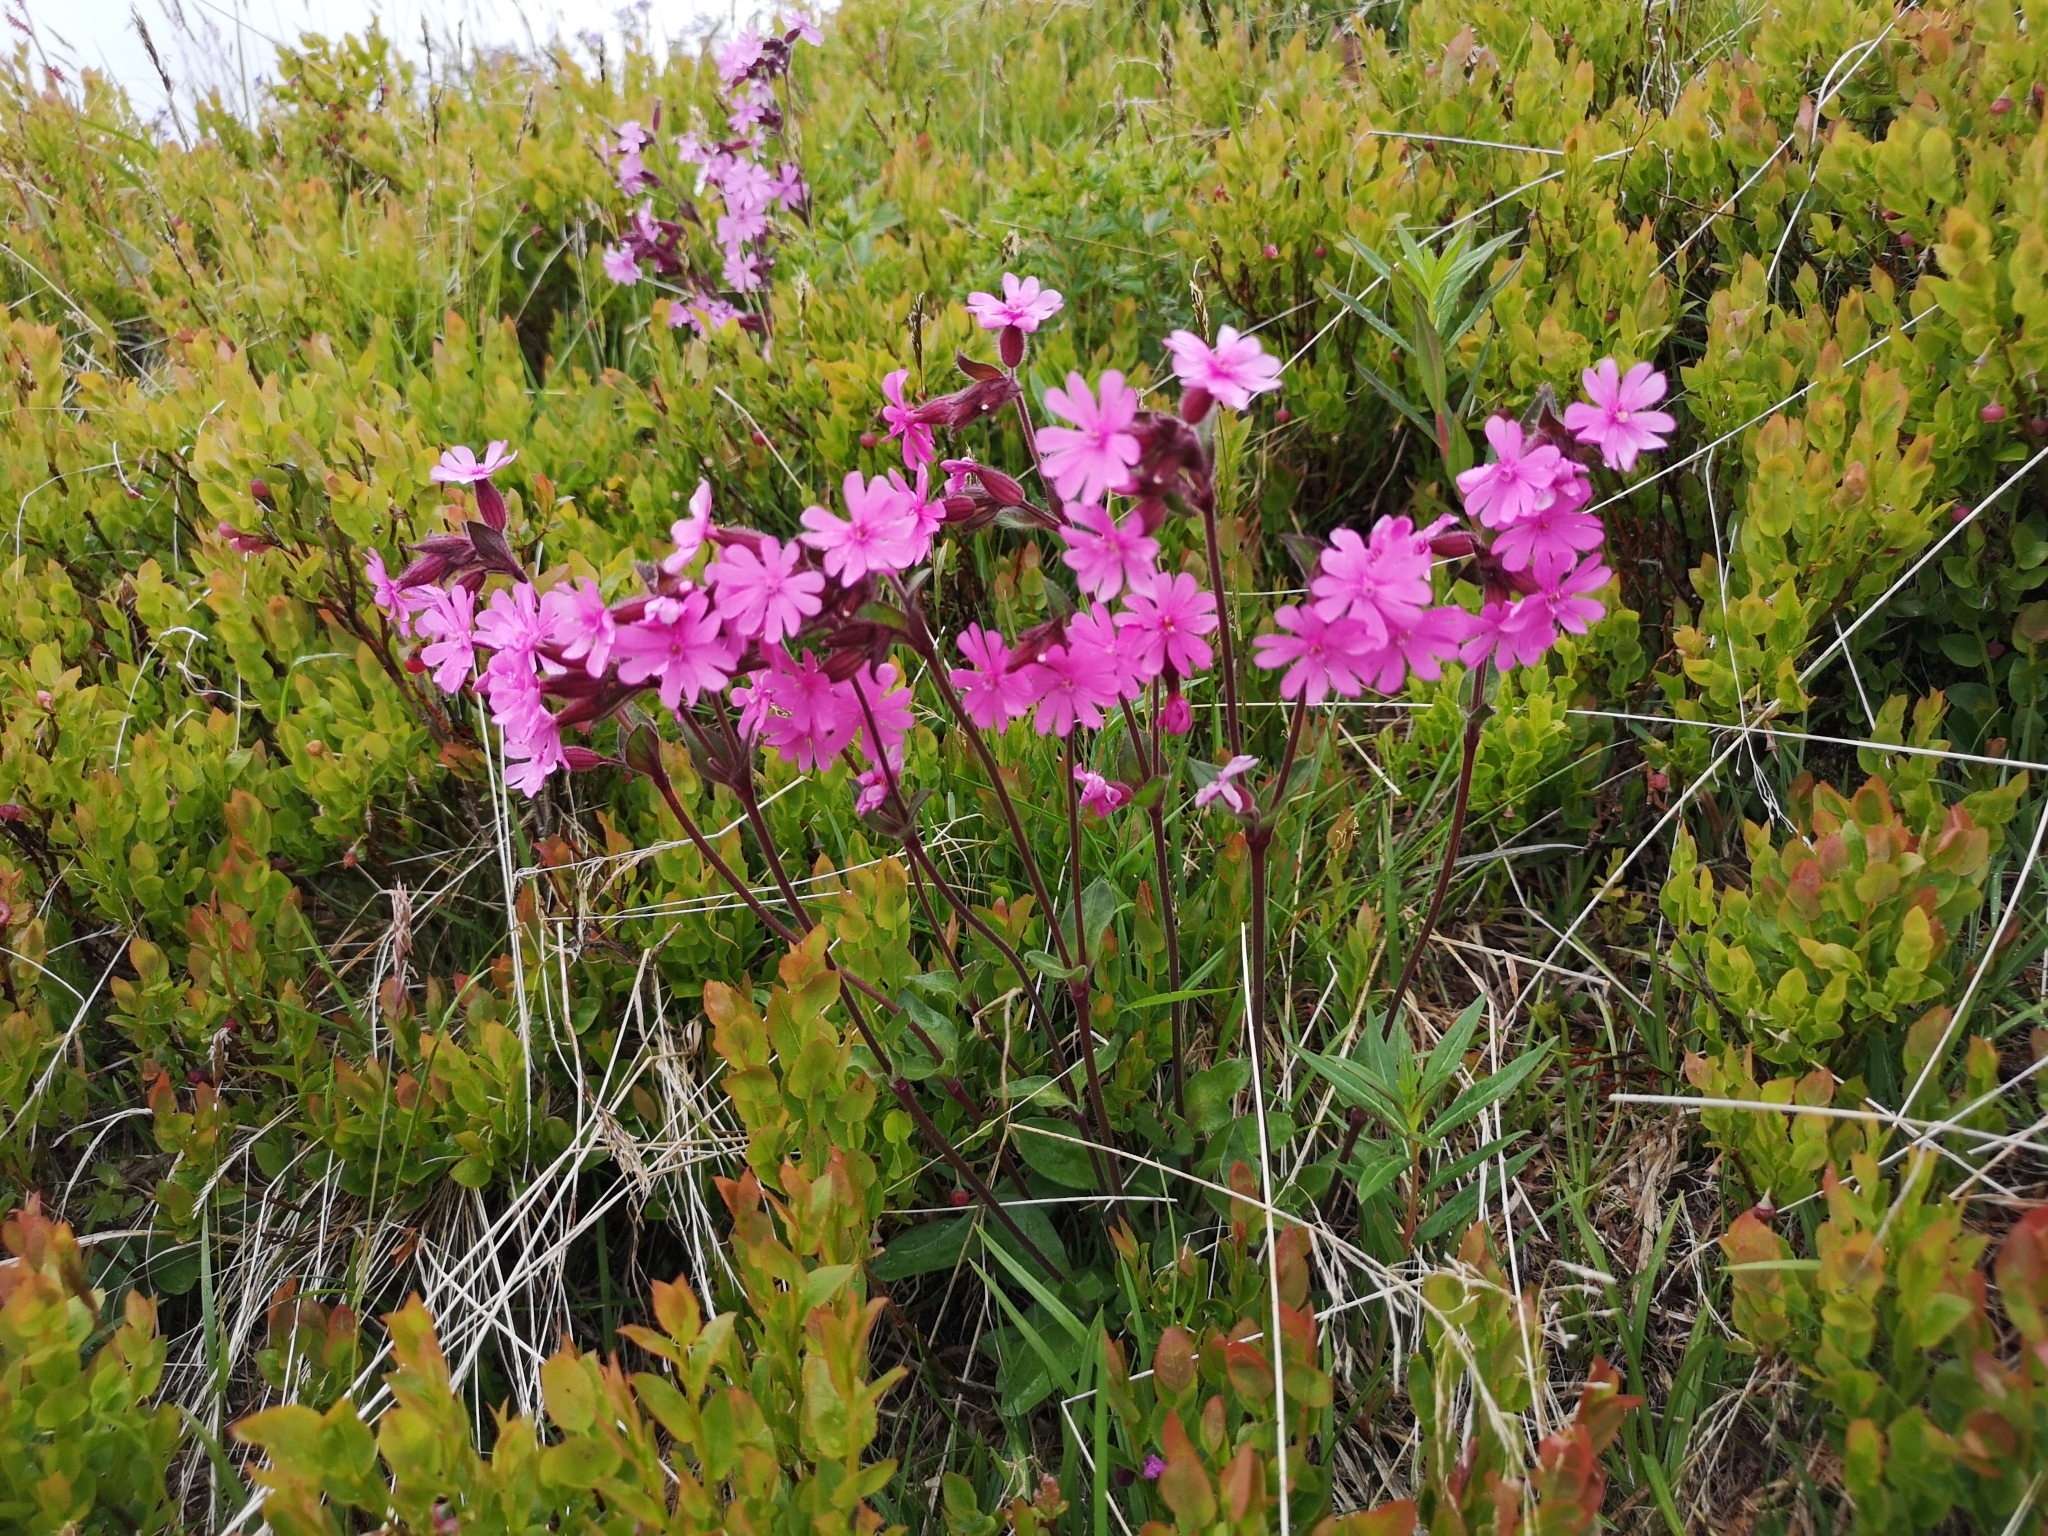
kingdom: Plantae
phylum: Tracheophyta
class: Magnoliopsida
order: Caryophyllales
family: Caryophyllaceae
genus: Silene
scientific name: Silene dioica
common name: Red campion
